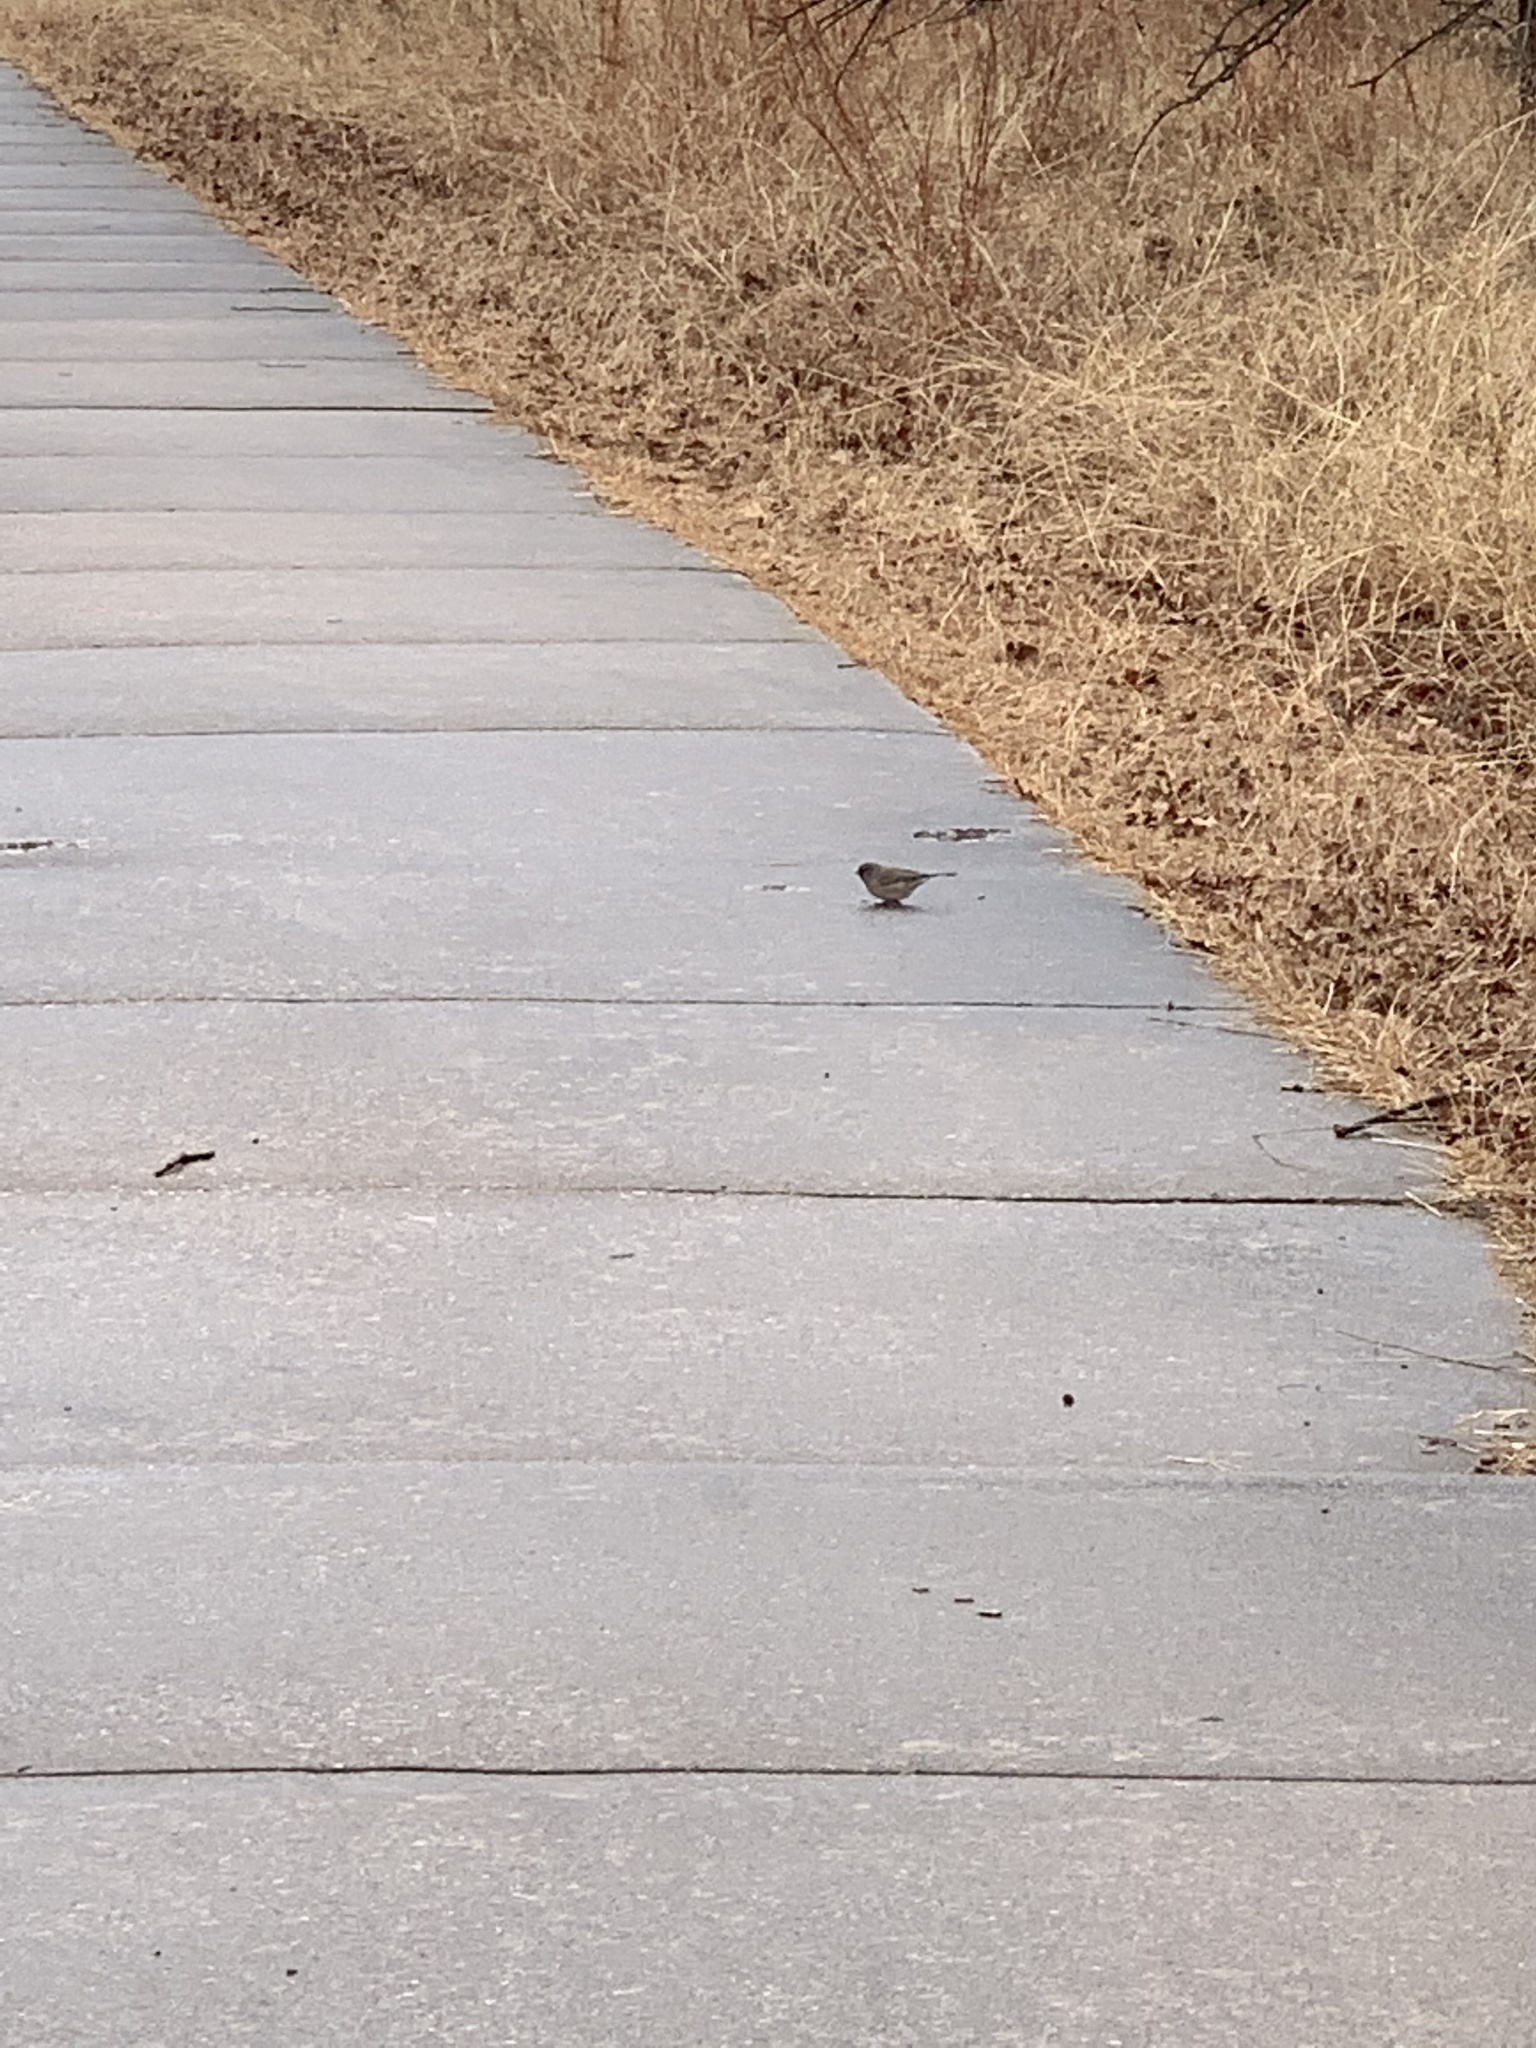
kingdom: Animalia
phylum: Chordata
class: Aves
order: Passeriformes
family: Passerellidae
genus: Junco
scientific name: Junco hyemalis
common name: Dark-eyed junco
